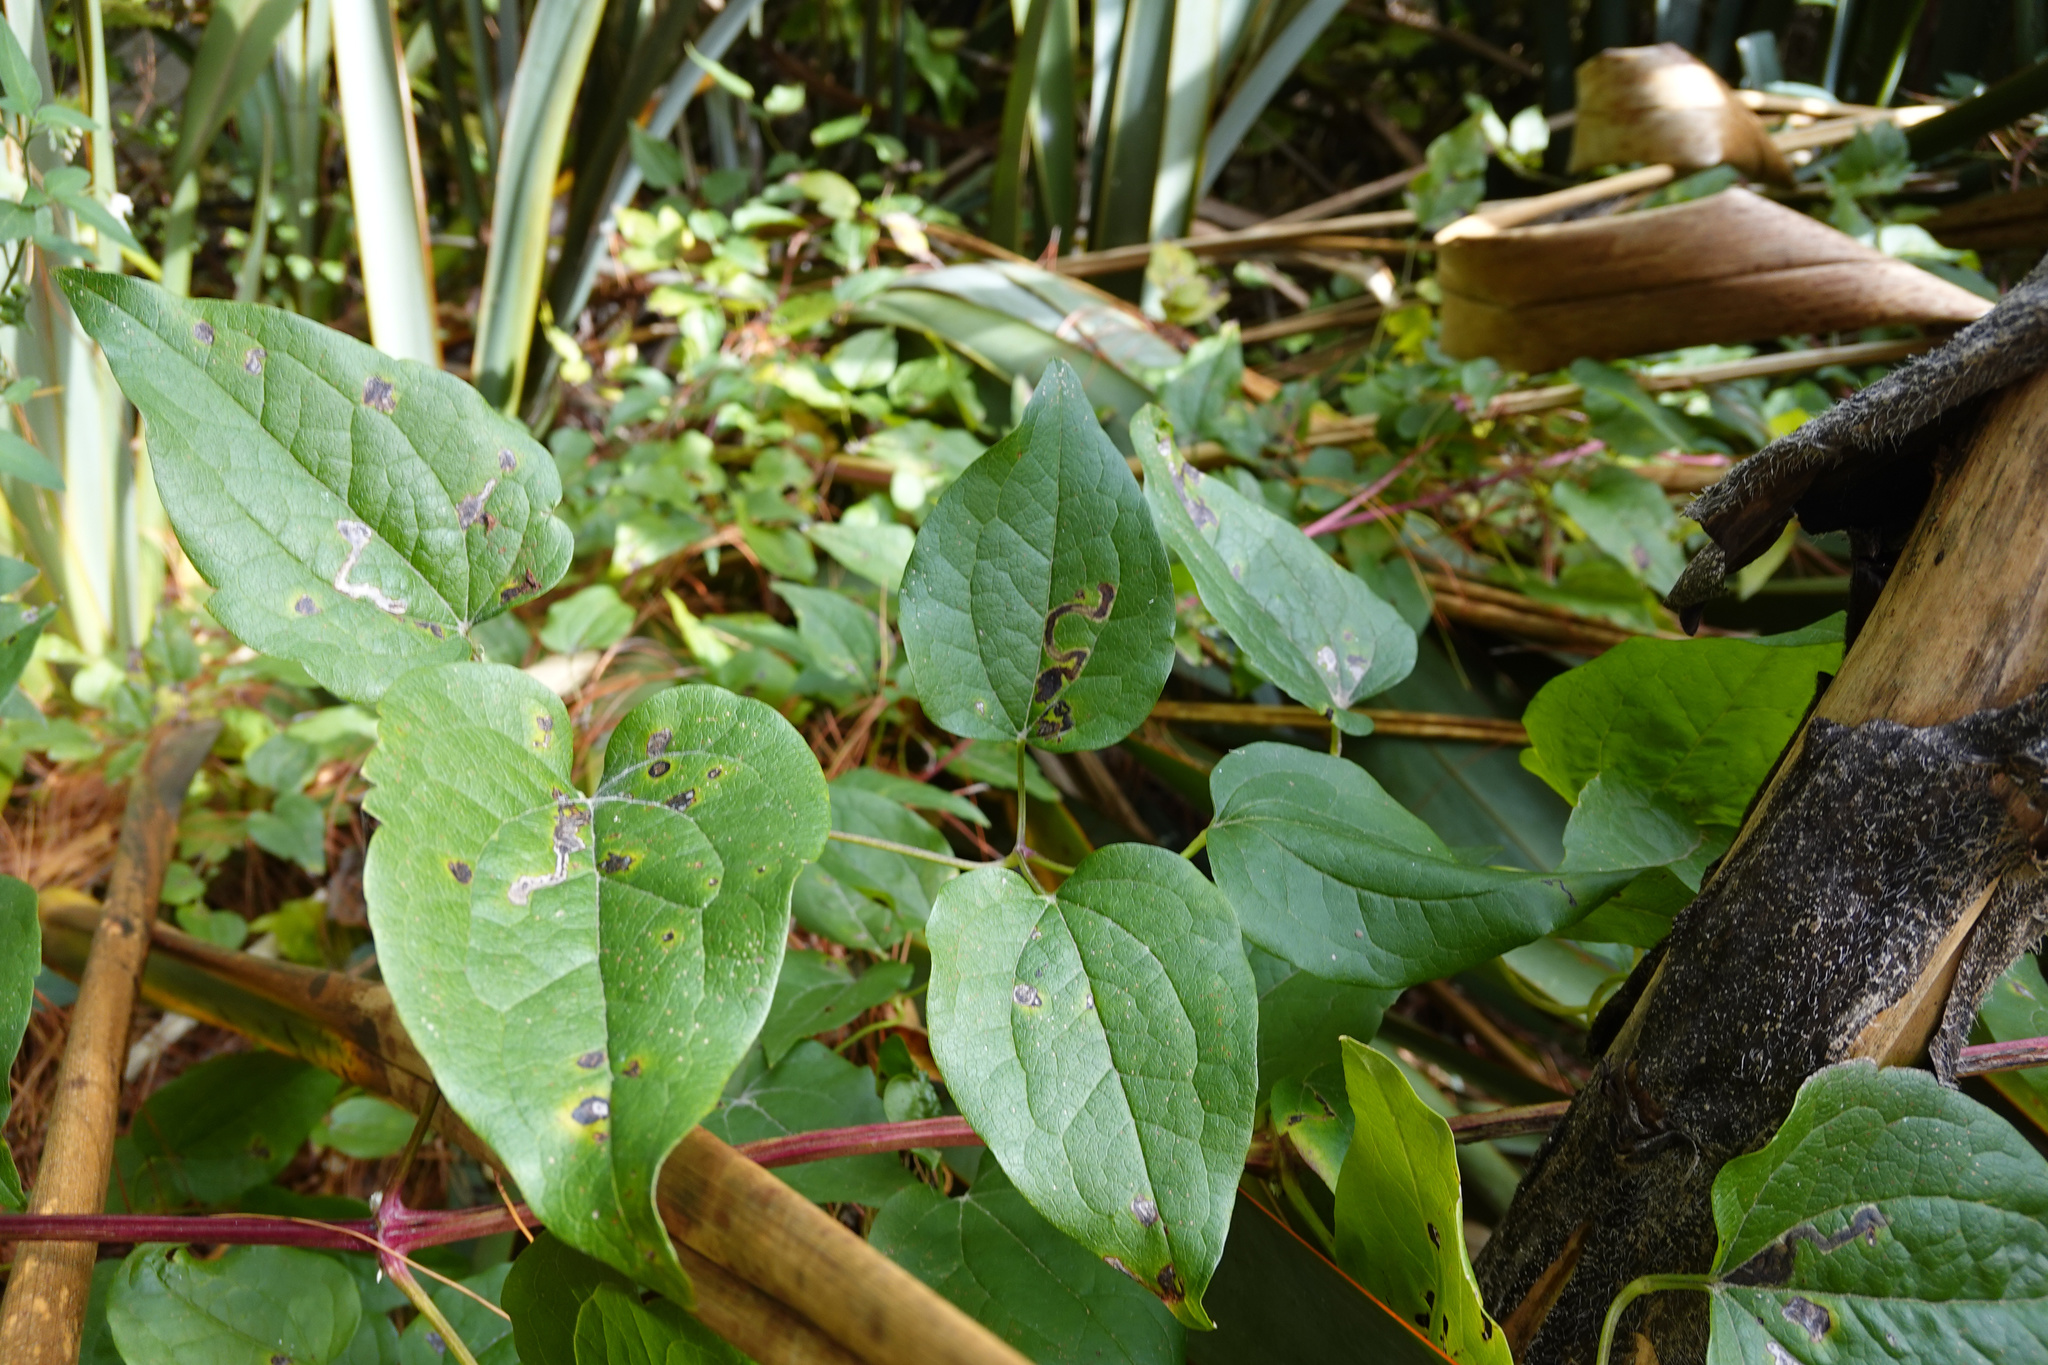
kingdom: Plantae
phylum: Tracheophyta
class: Magnoliopsida
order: Ranunculales
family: Ranunculaceae
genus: Clematis
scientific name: Clematis vitalba
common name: Evergreen clematis
